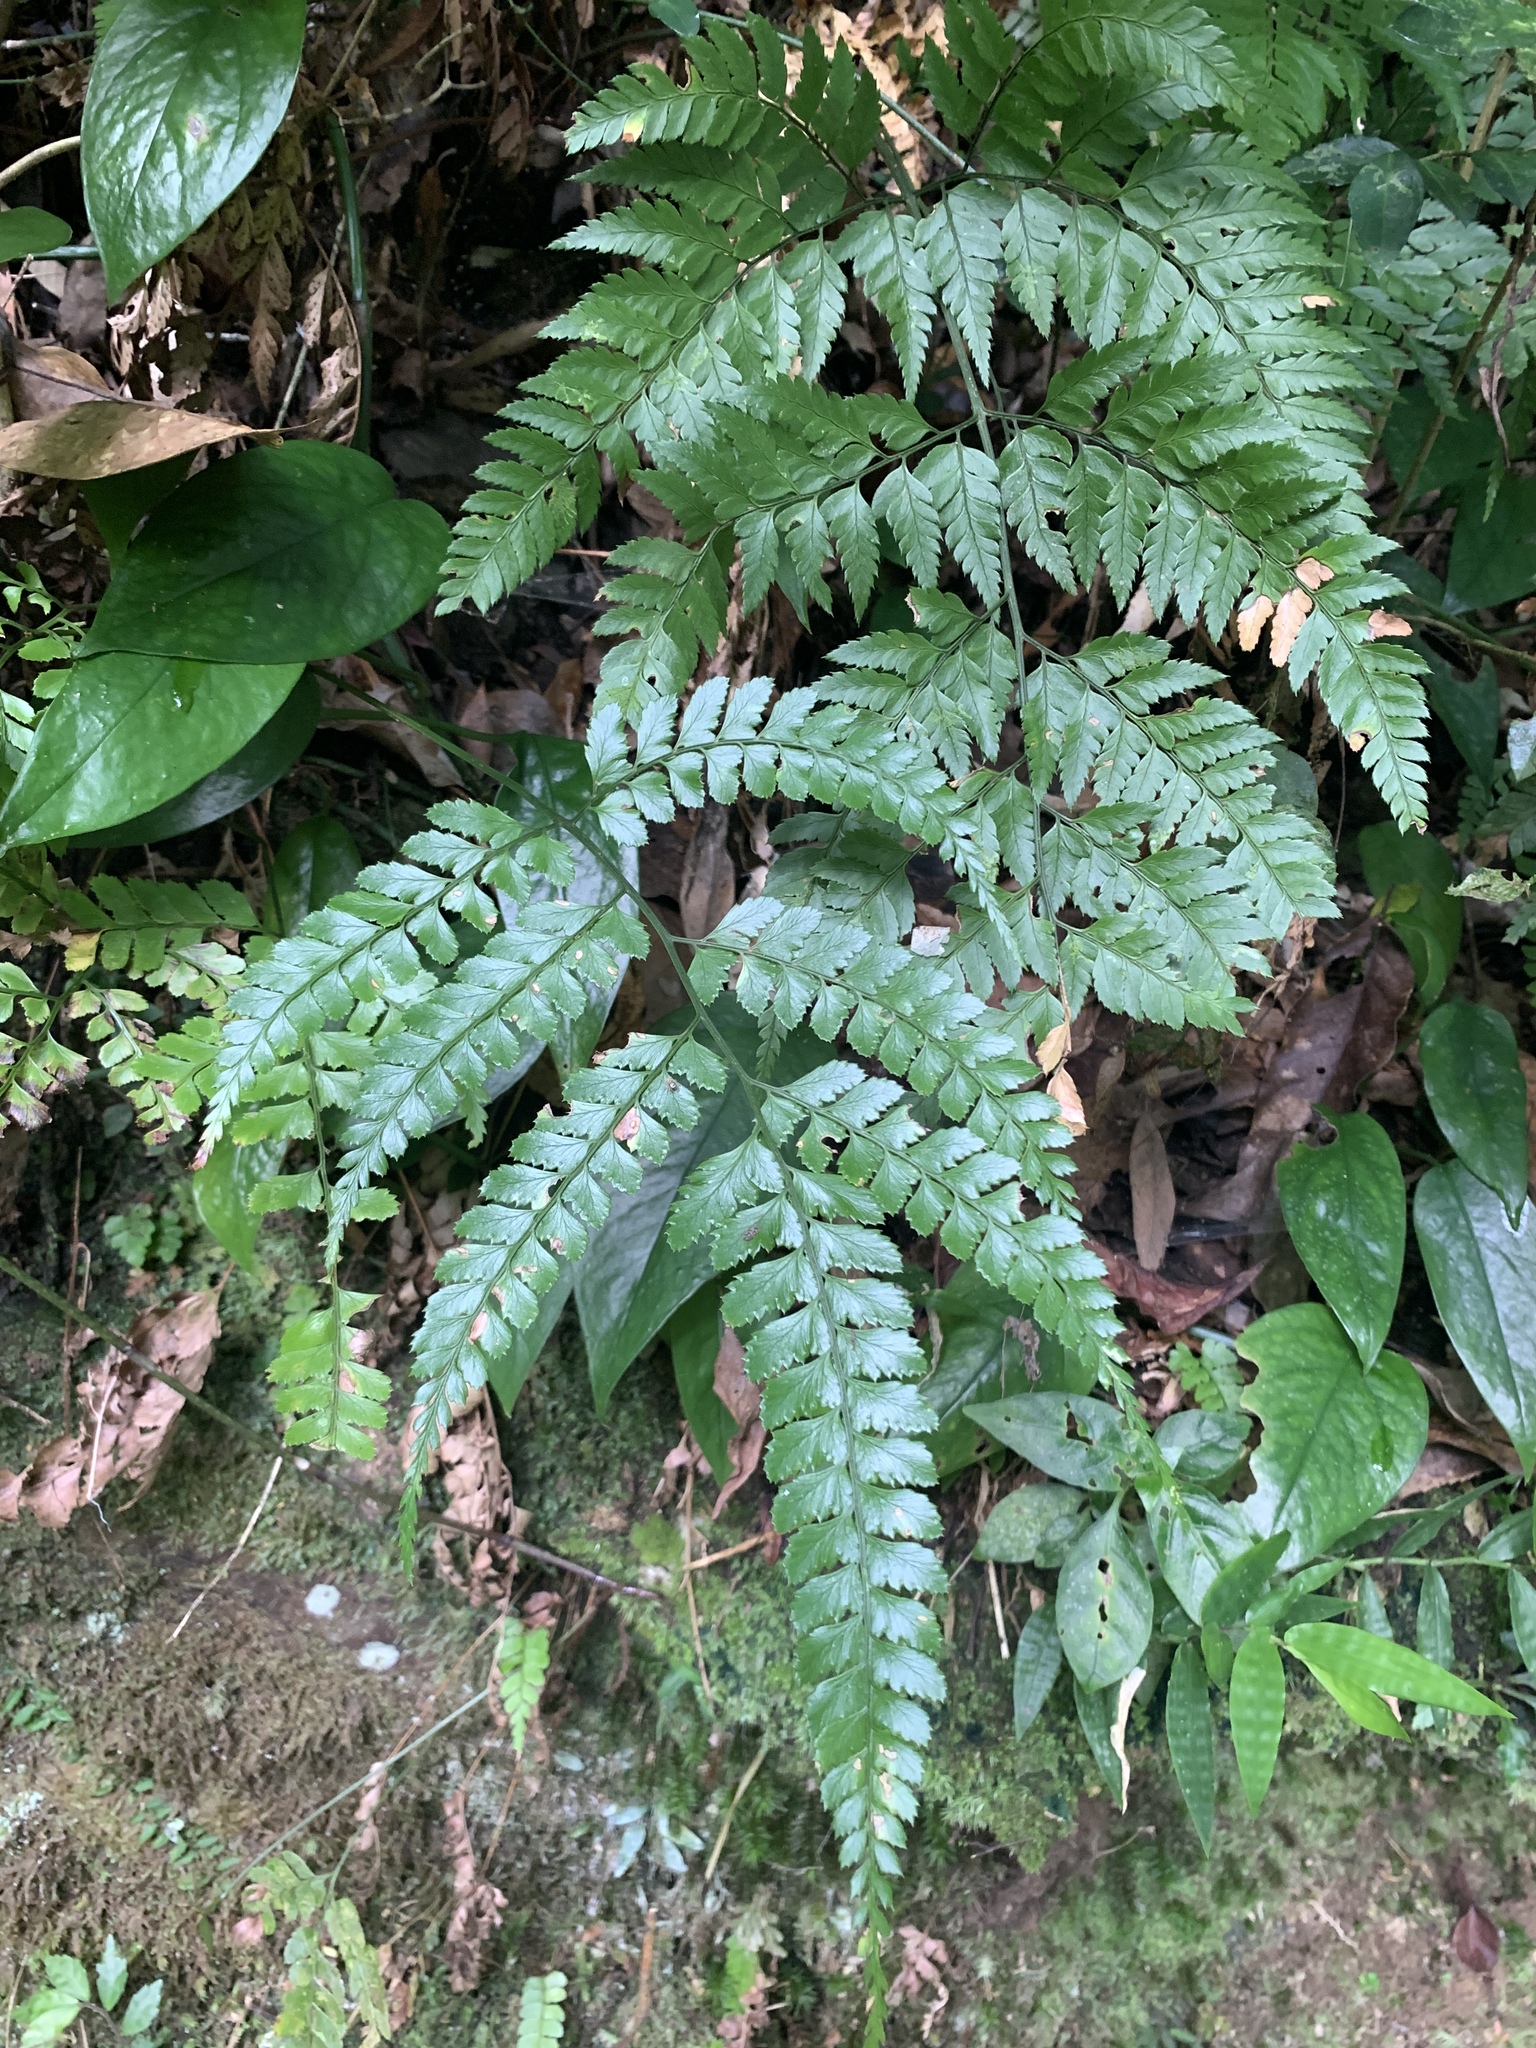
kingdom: Plantae
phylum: Tracheophyta
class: Polypodiopsida
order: Polypodiales
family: Dryopteridaceae
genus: Arachniodes
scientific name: Arachniodes rhomboidea
